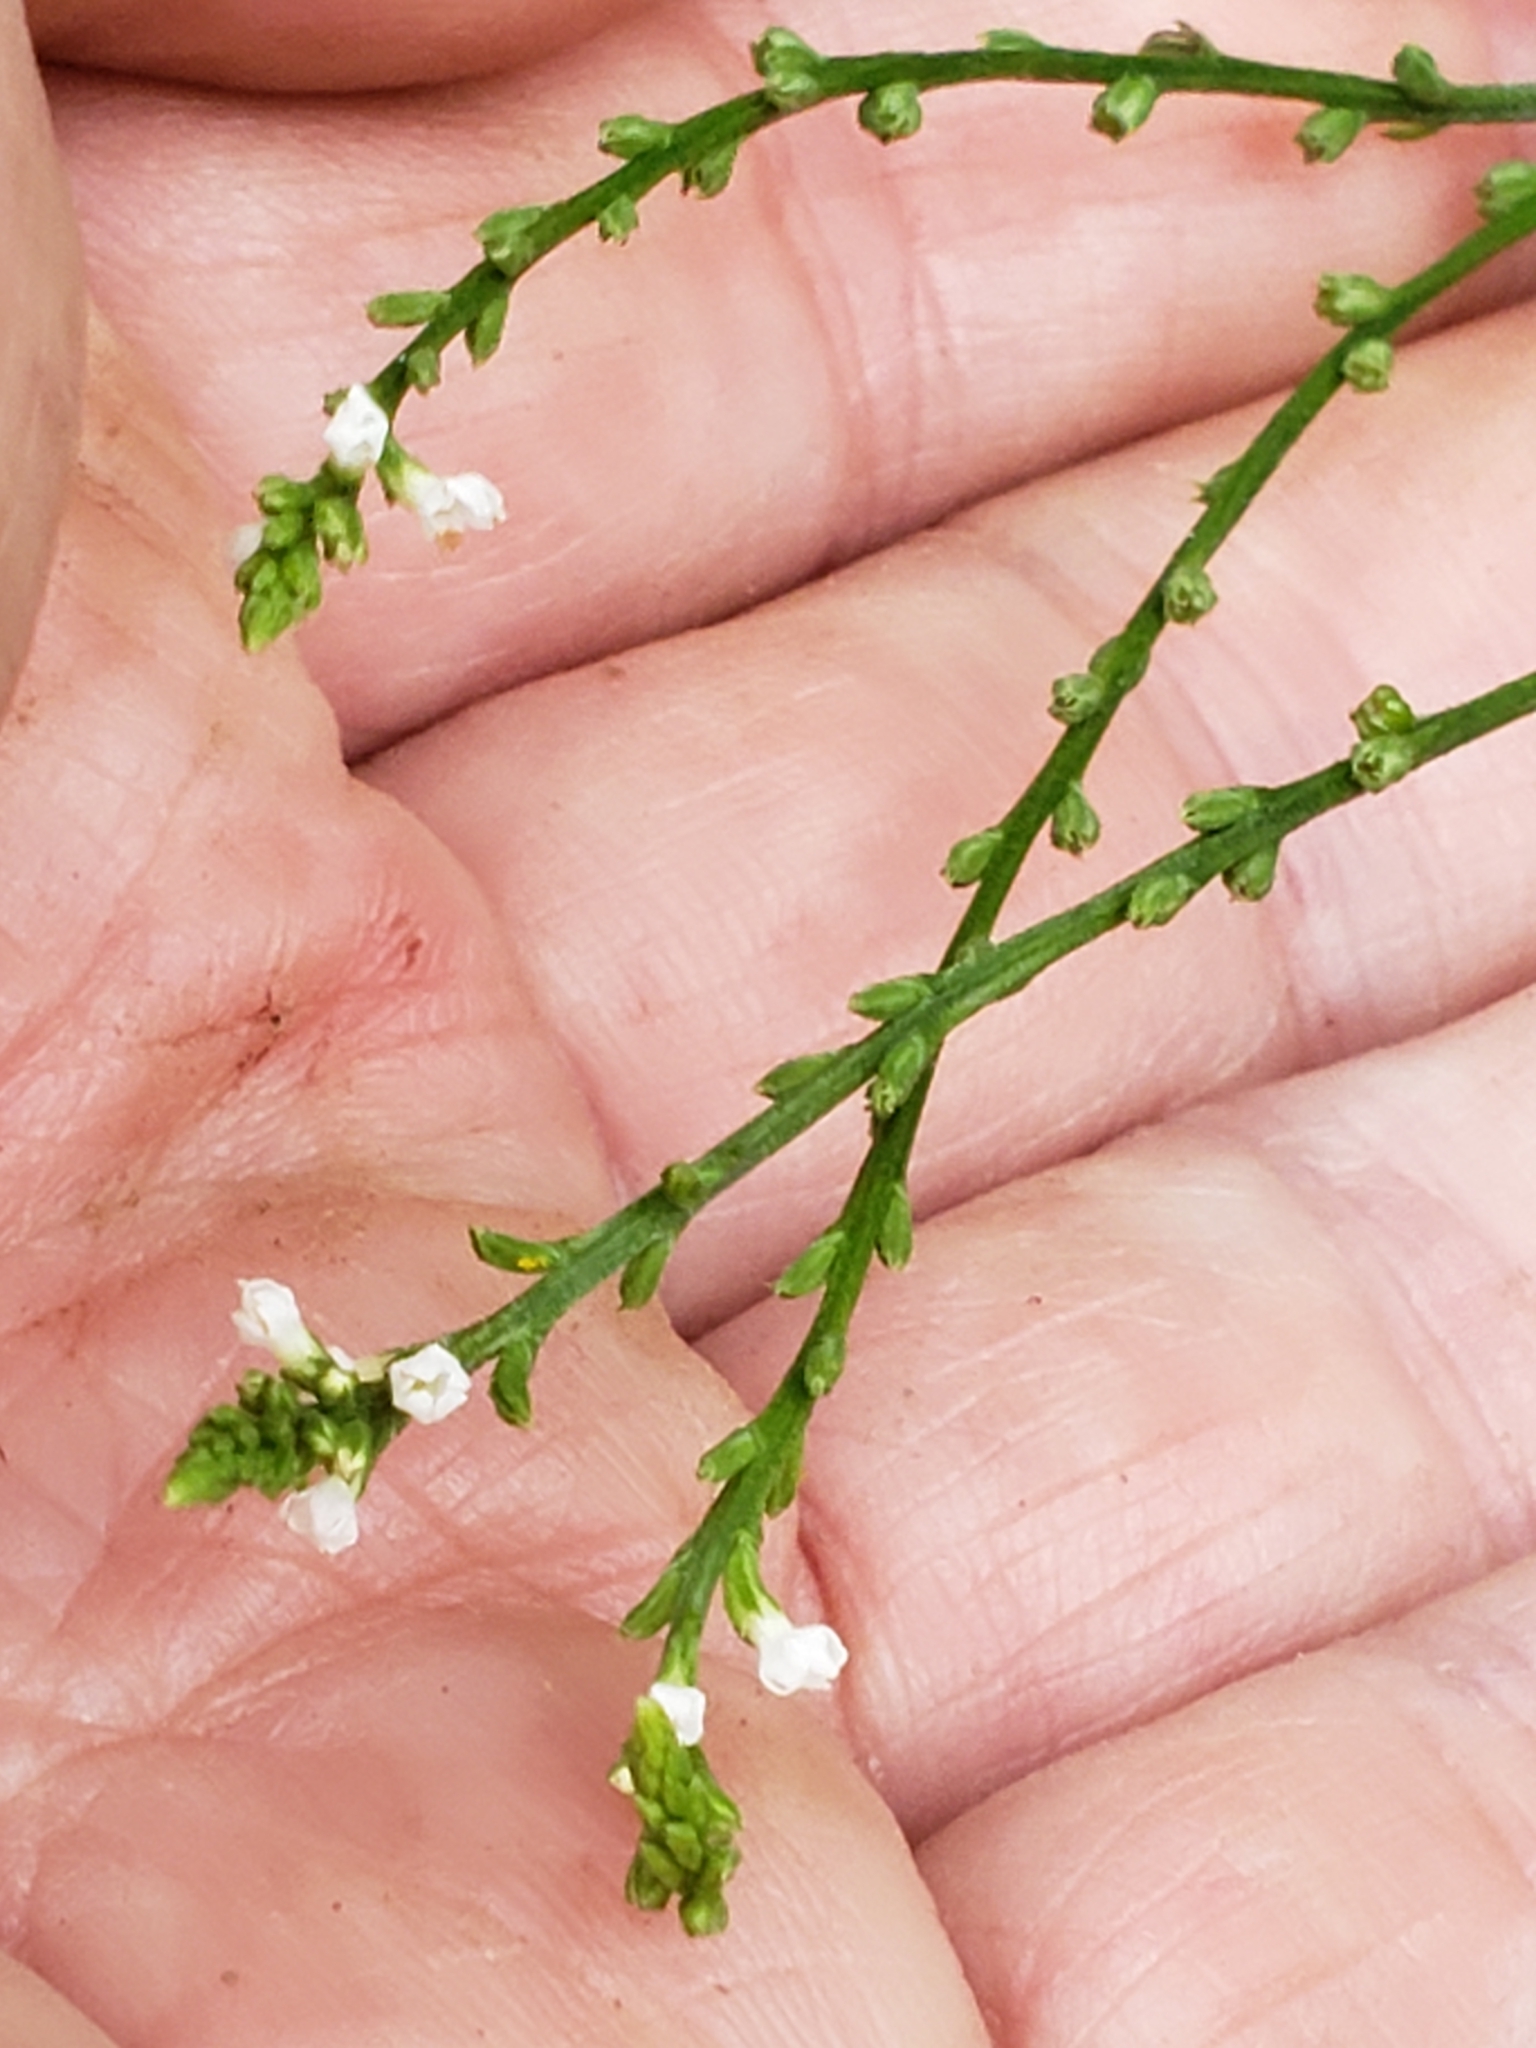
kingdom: Plantae
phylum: Tracheophyta
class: Magnoliopsida
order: Lamiales
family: Verbenaceae
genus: Verbena
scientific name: Verbena urticifolia
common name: Nettle-leaved vervain
